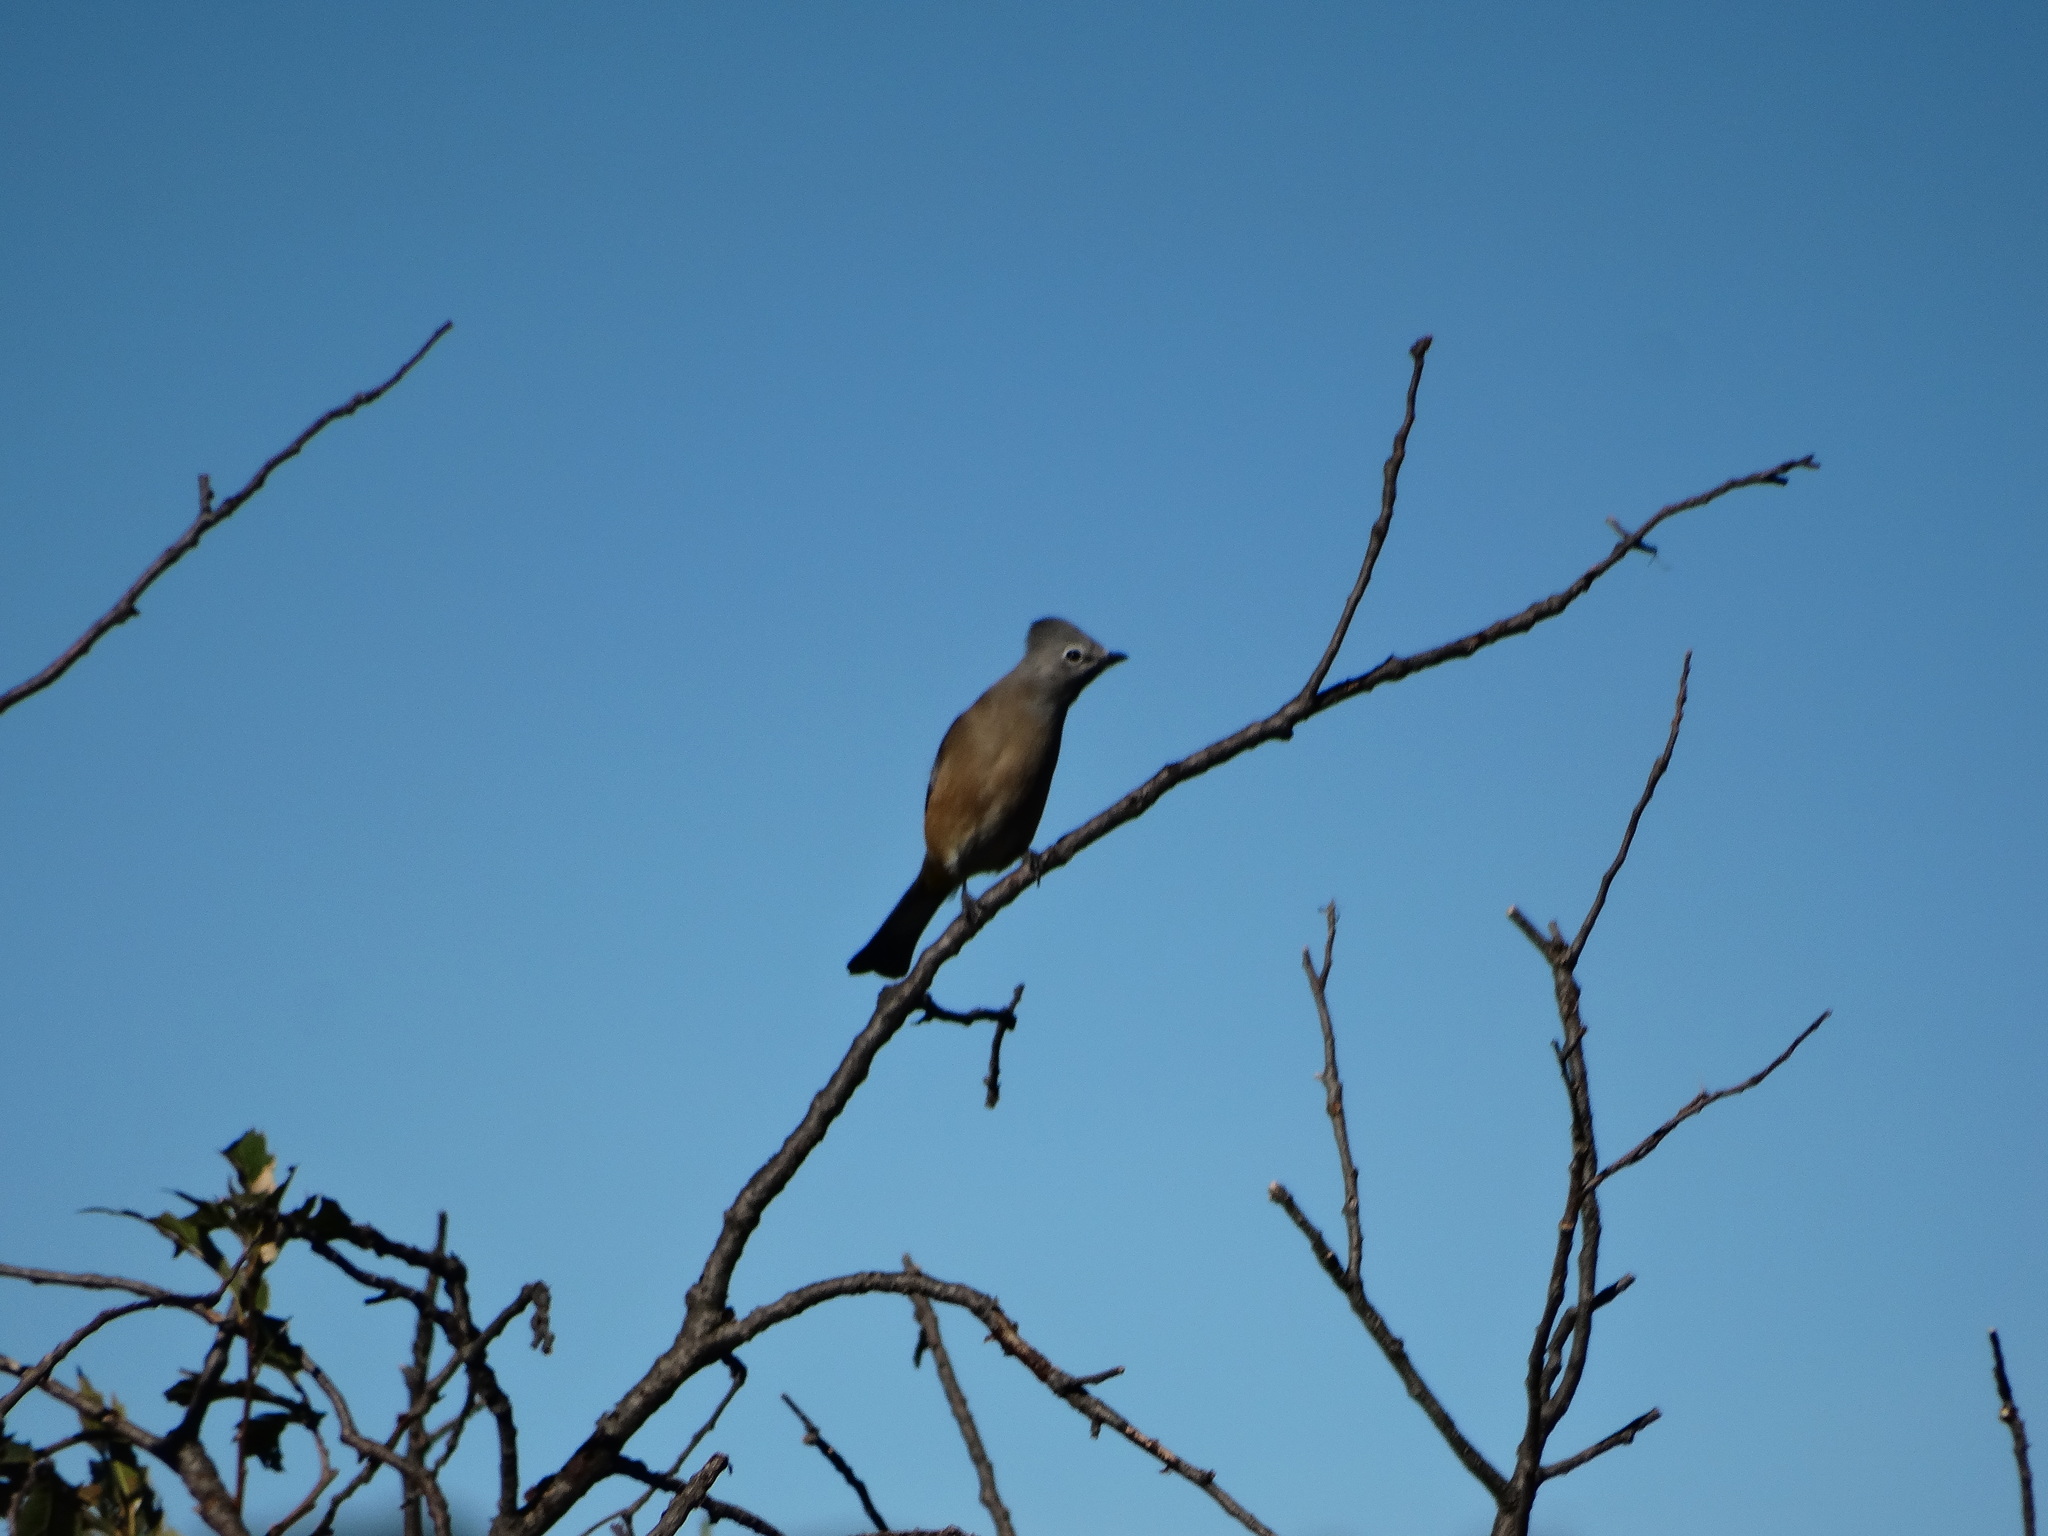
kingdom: Animalia
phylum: Chordata
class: Aves
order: Passeriformes
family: Ptilogonatidae
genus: Ptilogonys
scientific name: Ptilogonys cinereus
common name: Gray silky-flycatcher
